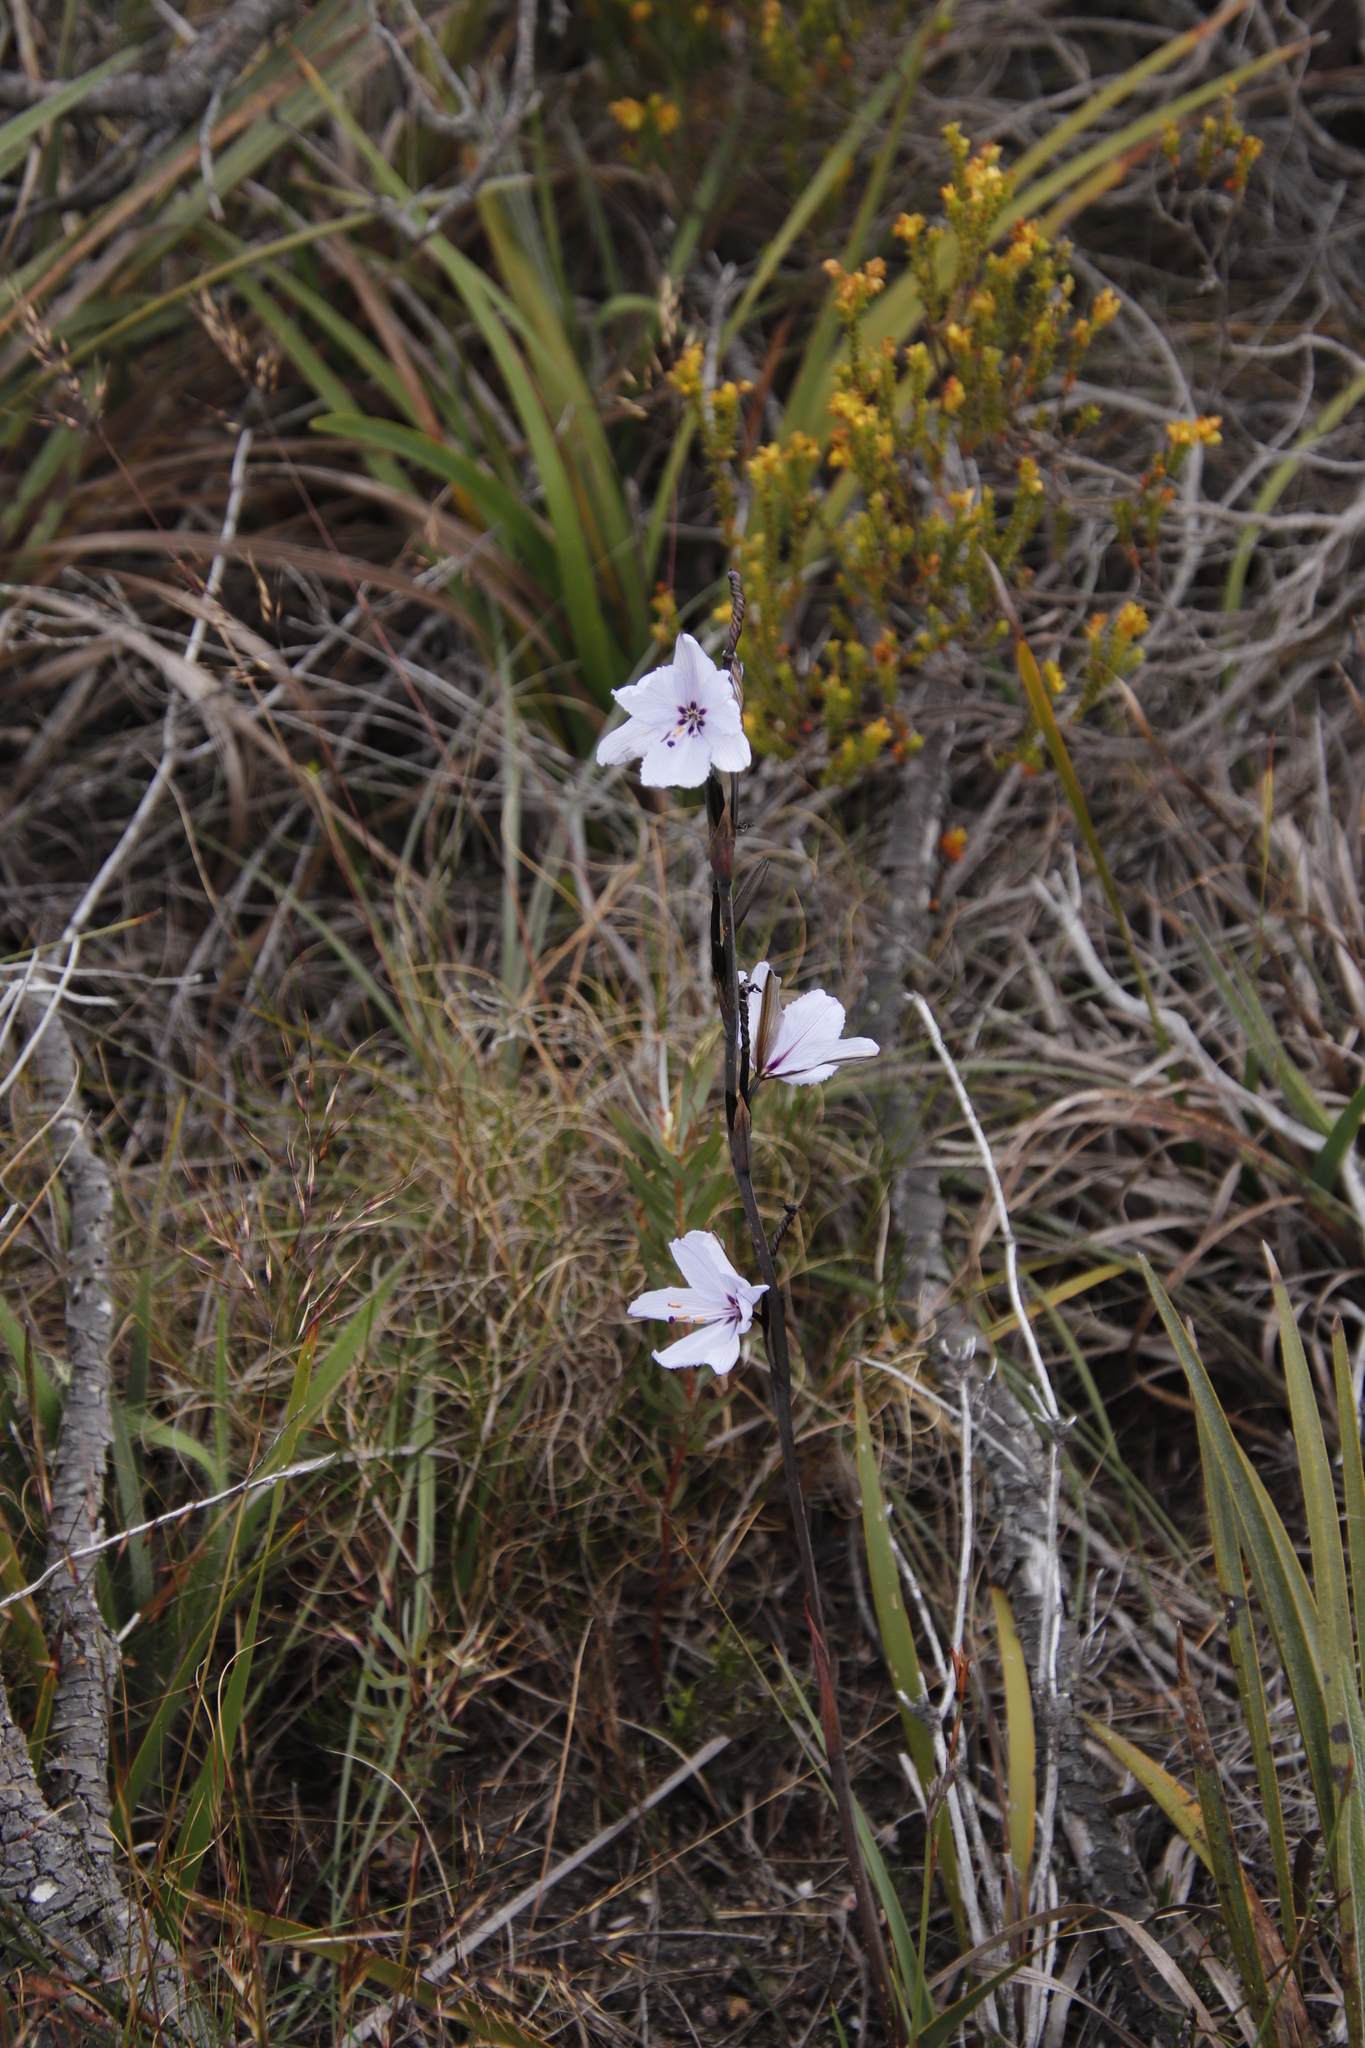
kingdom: Plantae
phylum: Tracheophyta
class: Liliopsida
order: Asparagales
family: Iridaceae
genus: Aristea
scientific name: Aristea spiralis
